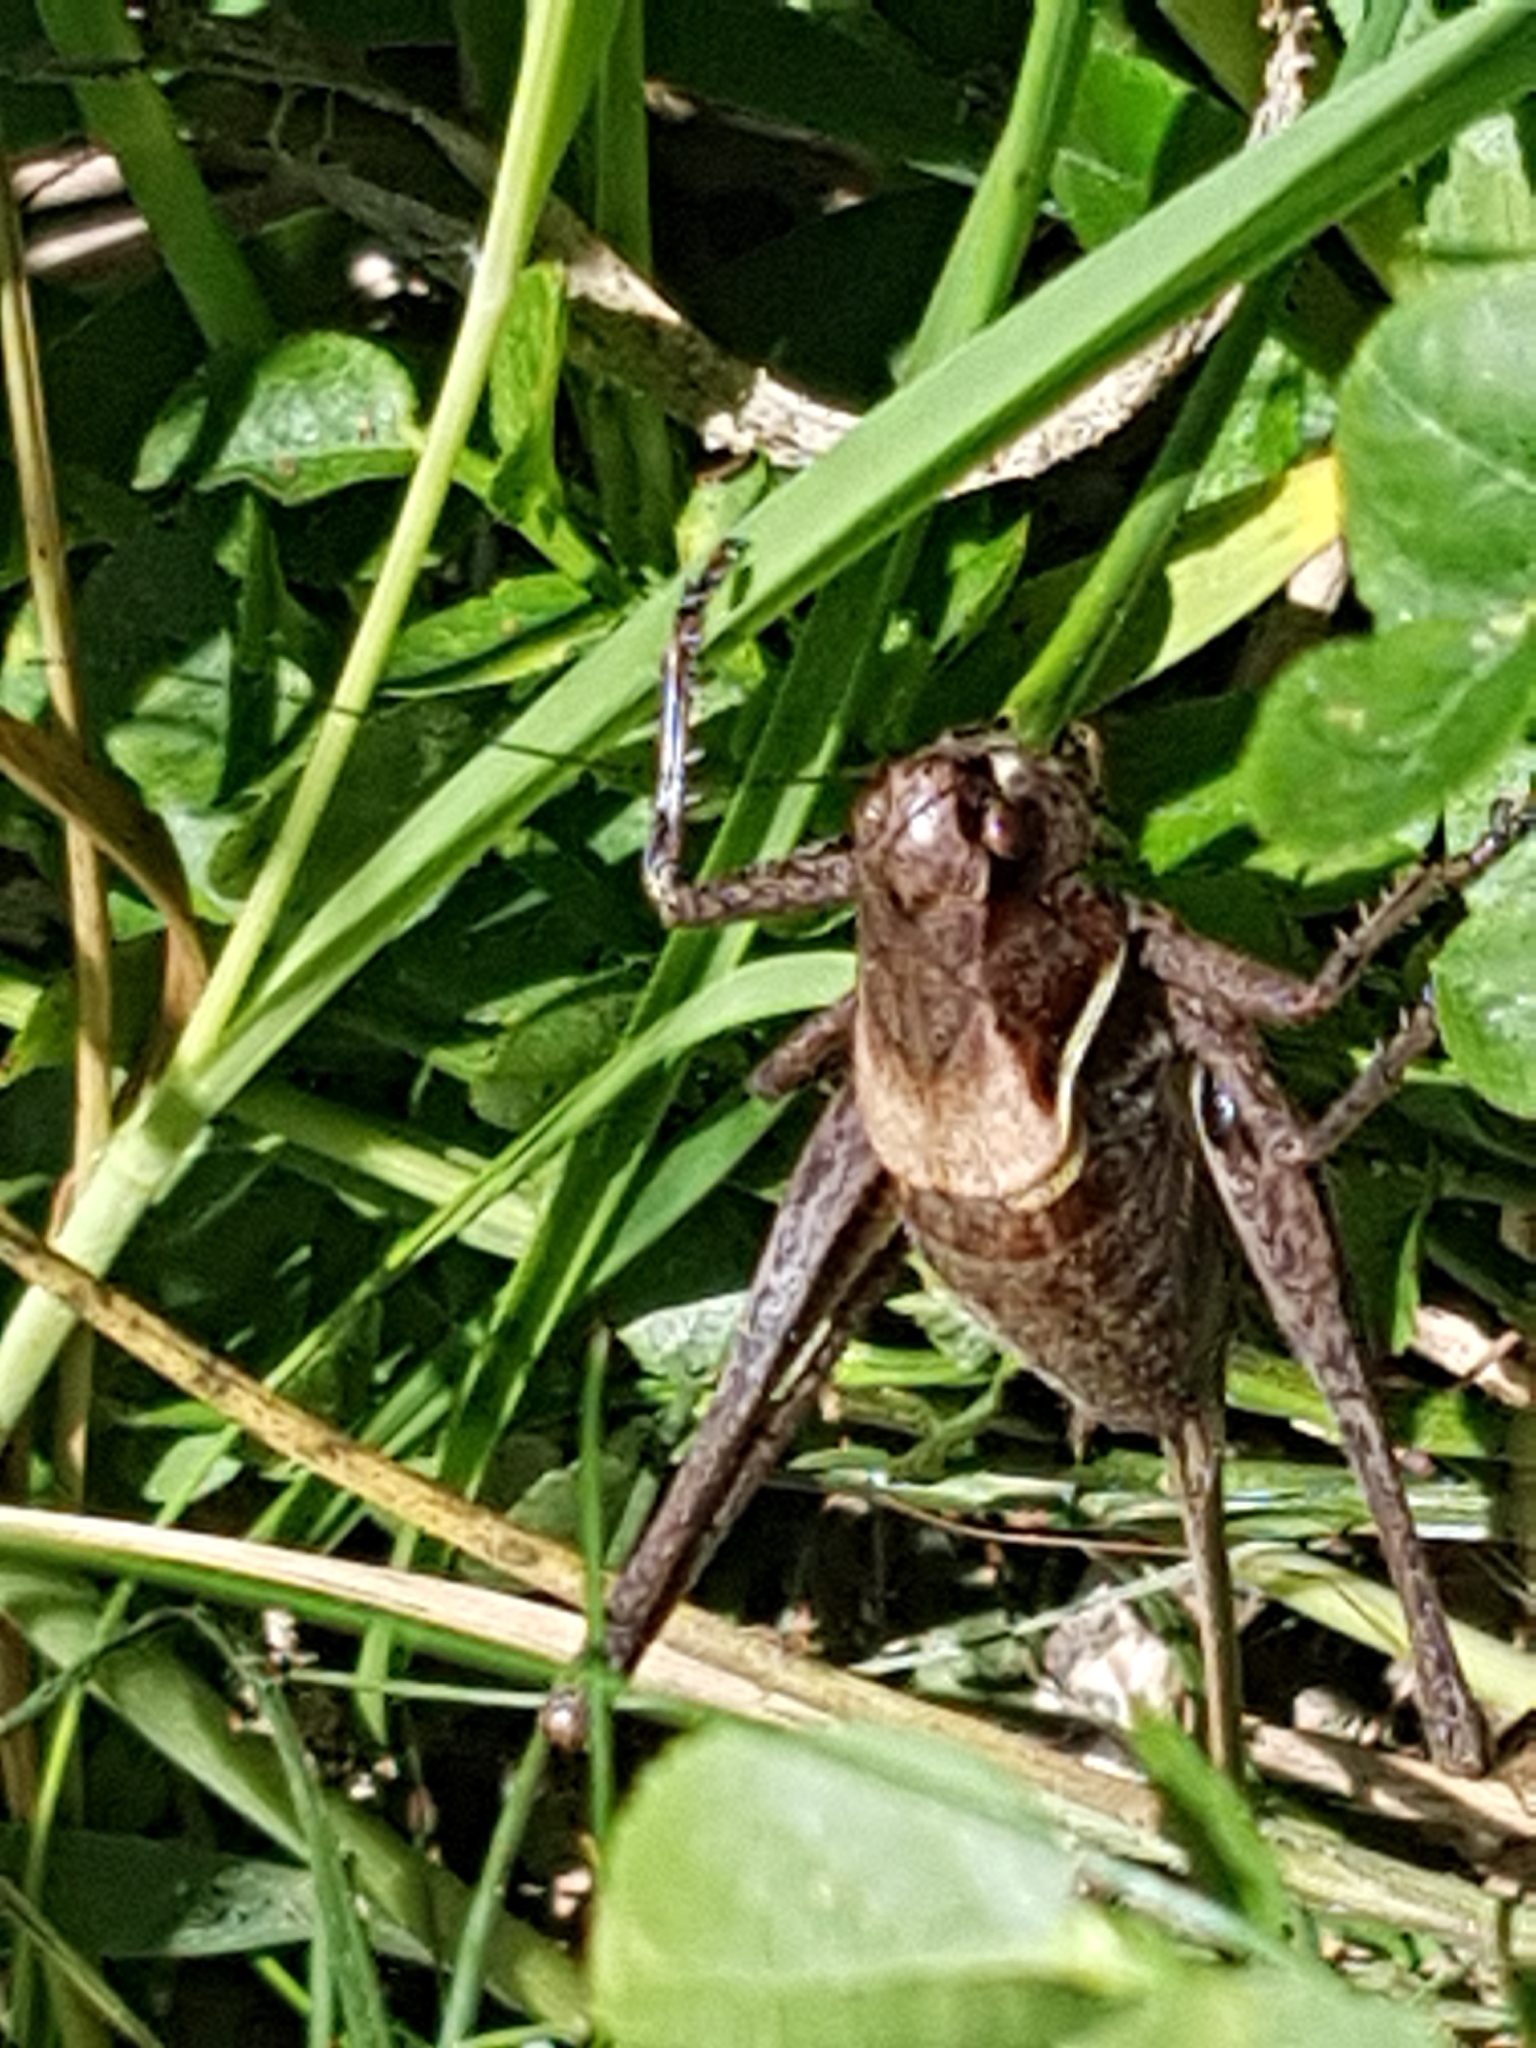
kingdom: Animalia
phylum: Arthropoda
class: Insecta
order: Orthoptera
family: Tettigoniidae
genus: Pholidoptera
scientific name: Pholidoptera aptera
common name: Alpine dark bush-cricket
